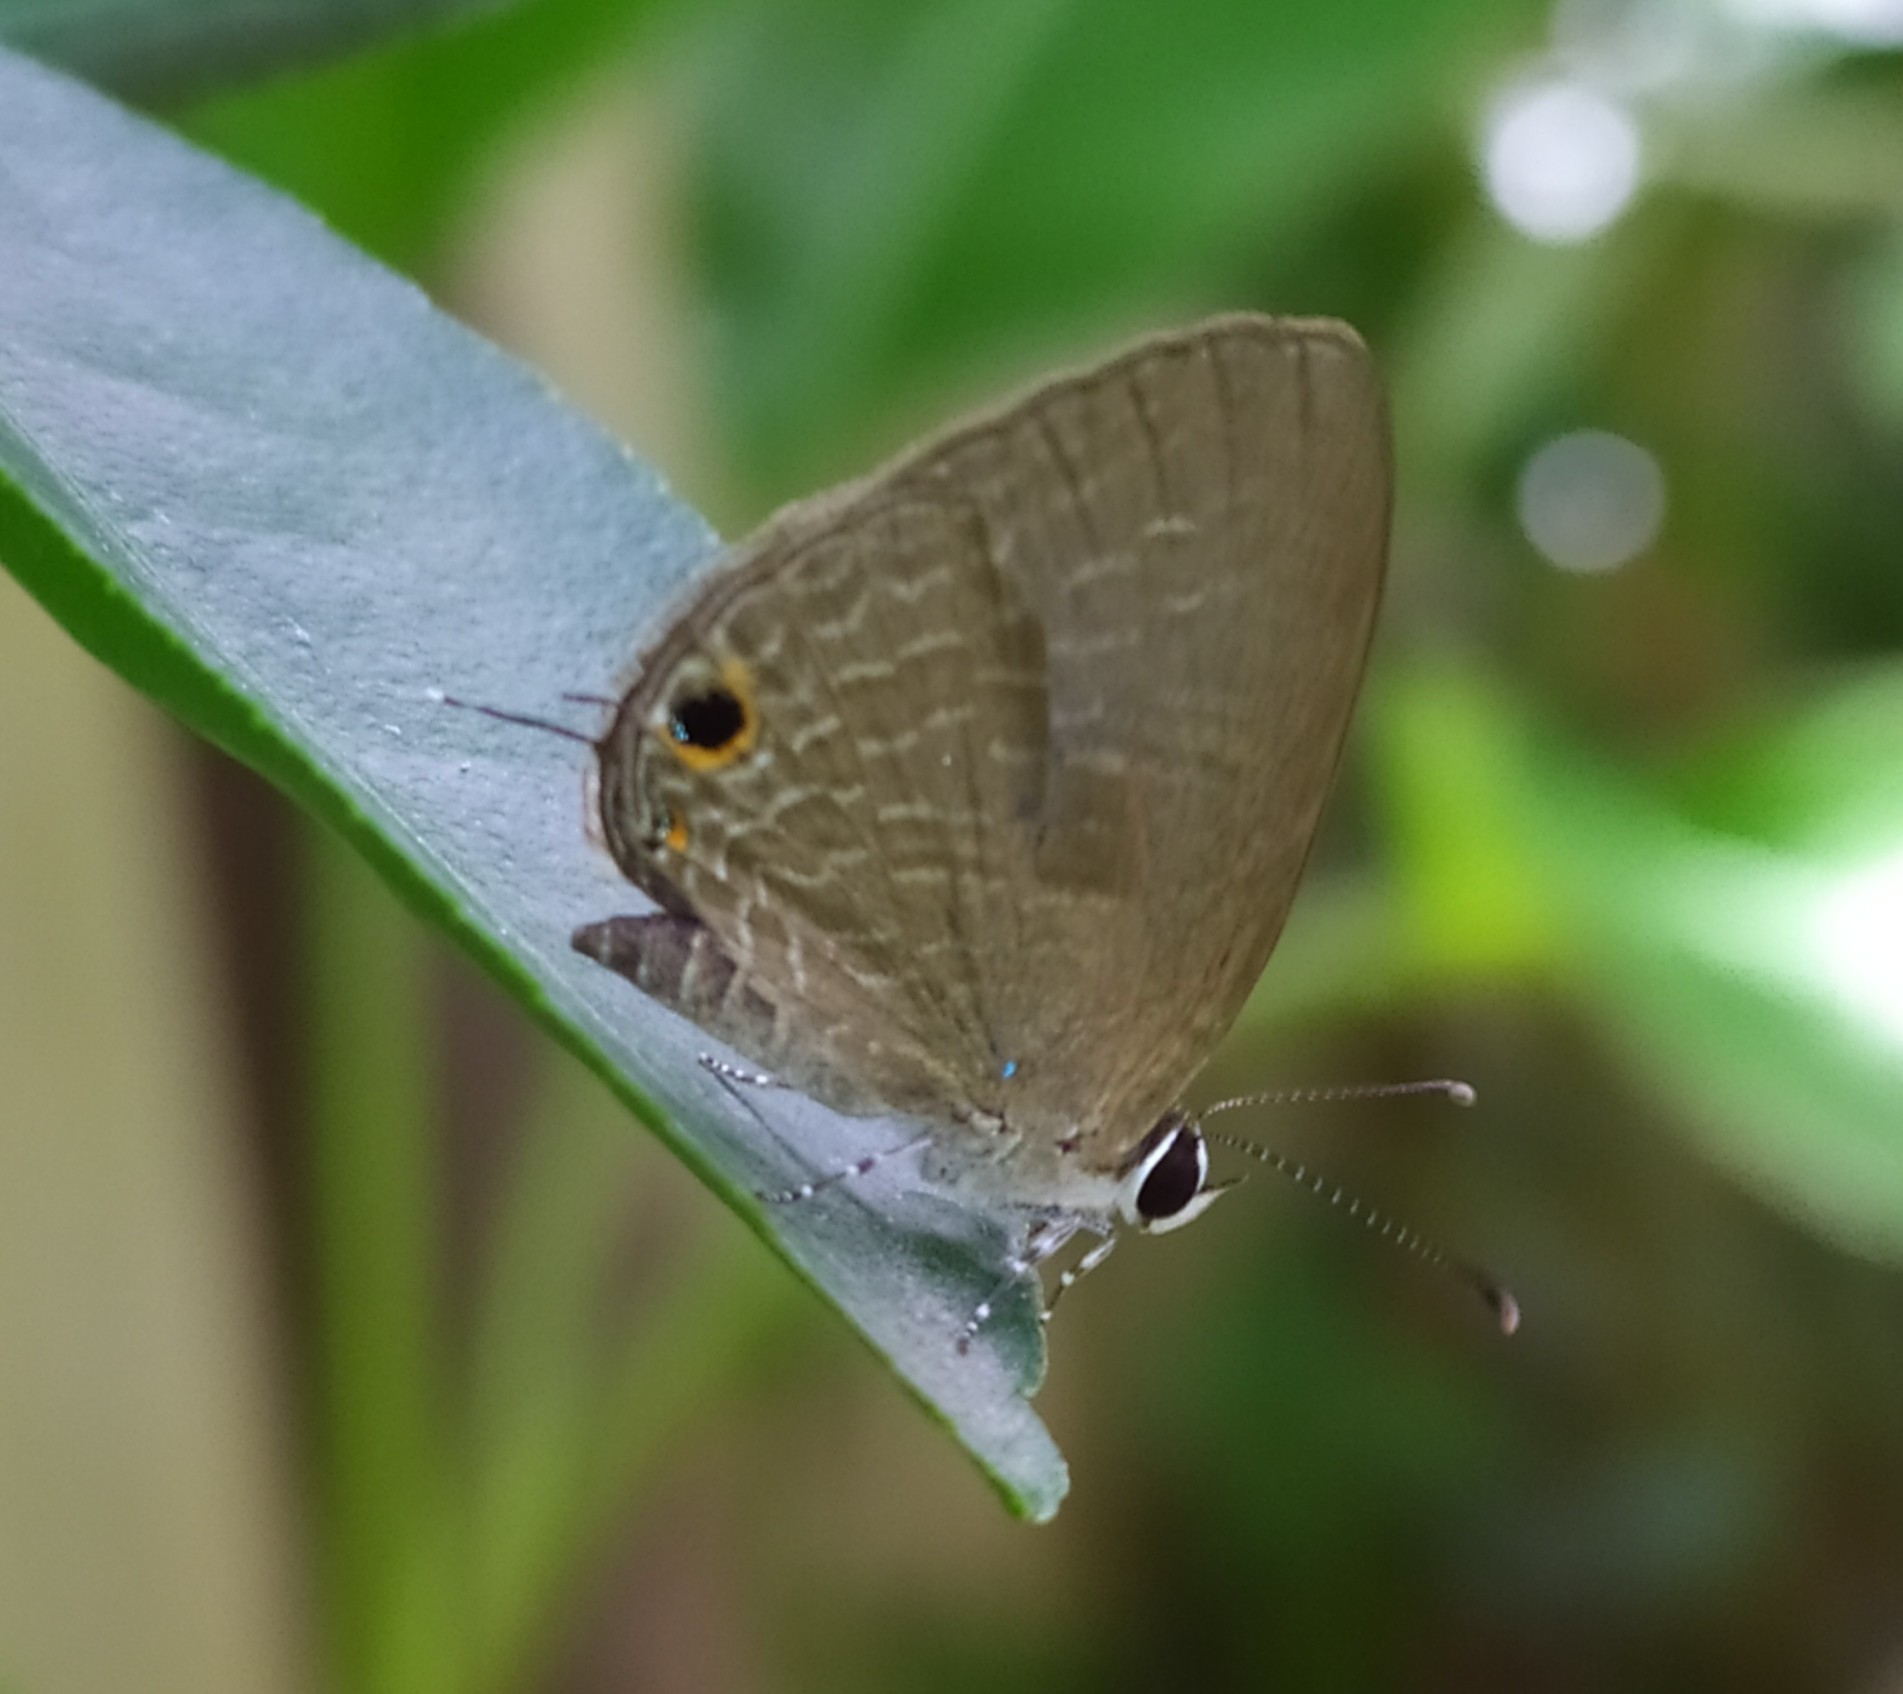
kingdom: Animalia
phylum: Arthropoda
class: Insecta
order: Lepidoptera
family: Lycaenidae
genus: Jamides
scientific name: Jamides bochus
